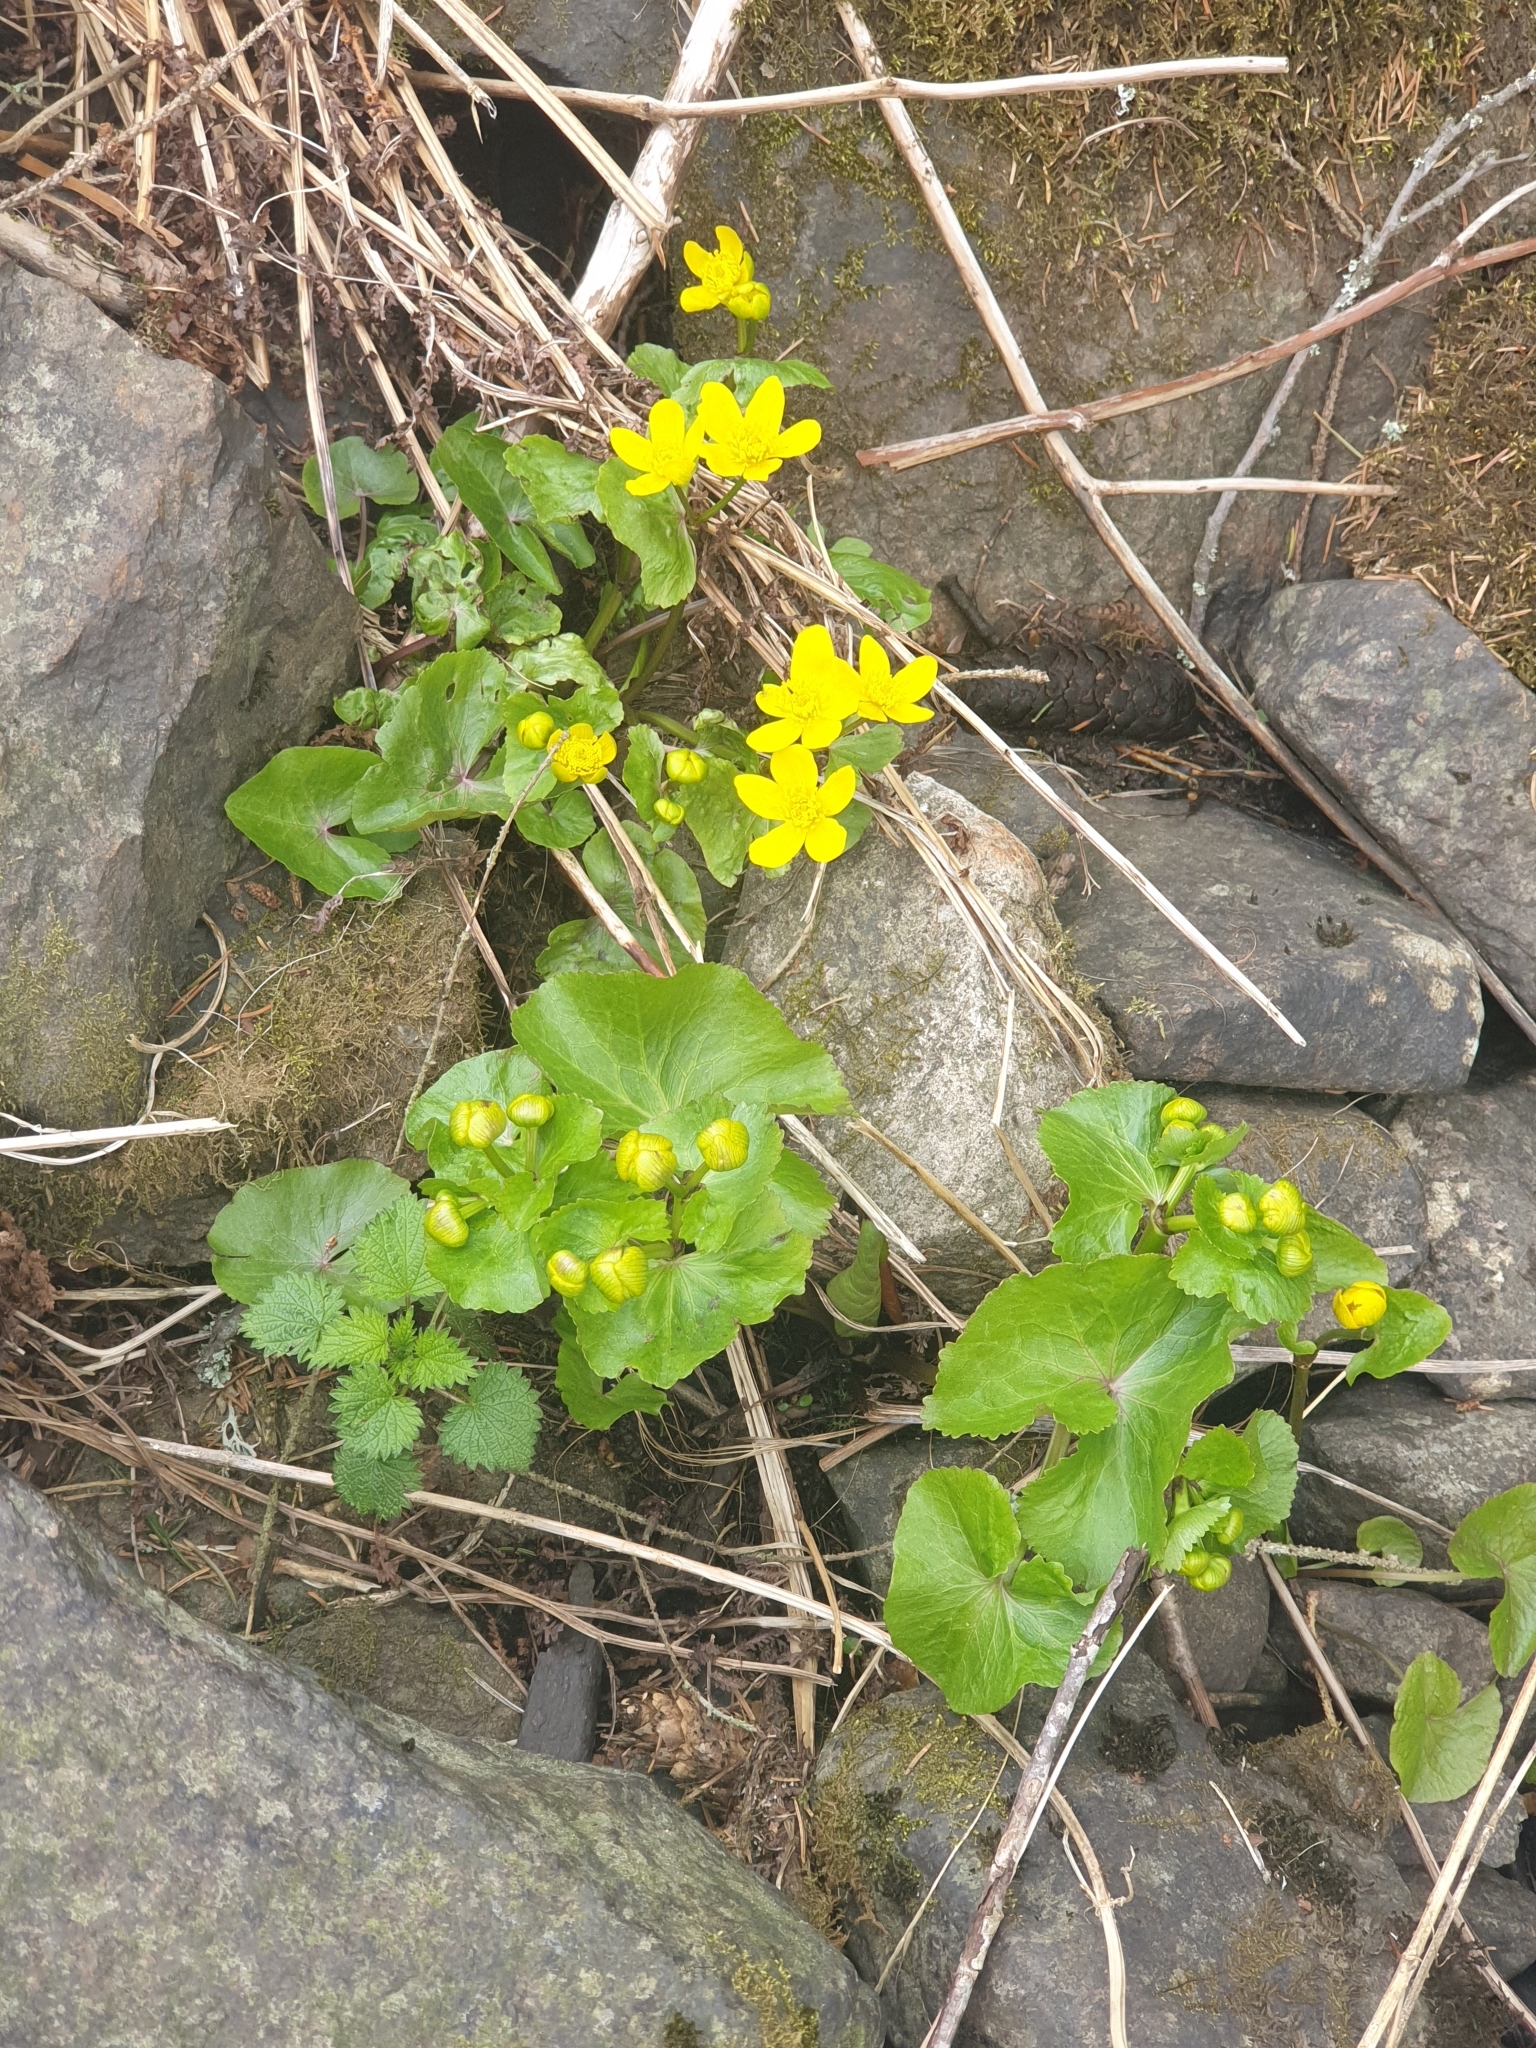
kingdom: Plantae
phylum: Tracheophyta
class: Magnoliopsida
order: Ranunculales
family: Ranunculaceae
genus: Caltha
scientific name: Caltha palustris
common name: Marsh marigold
